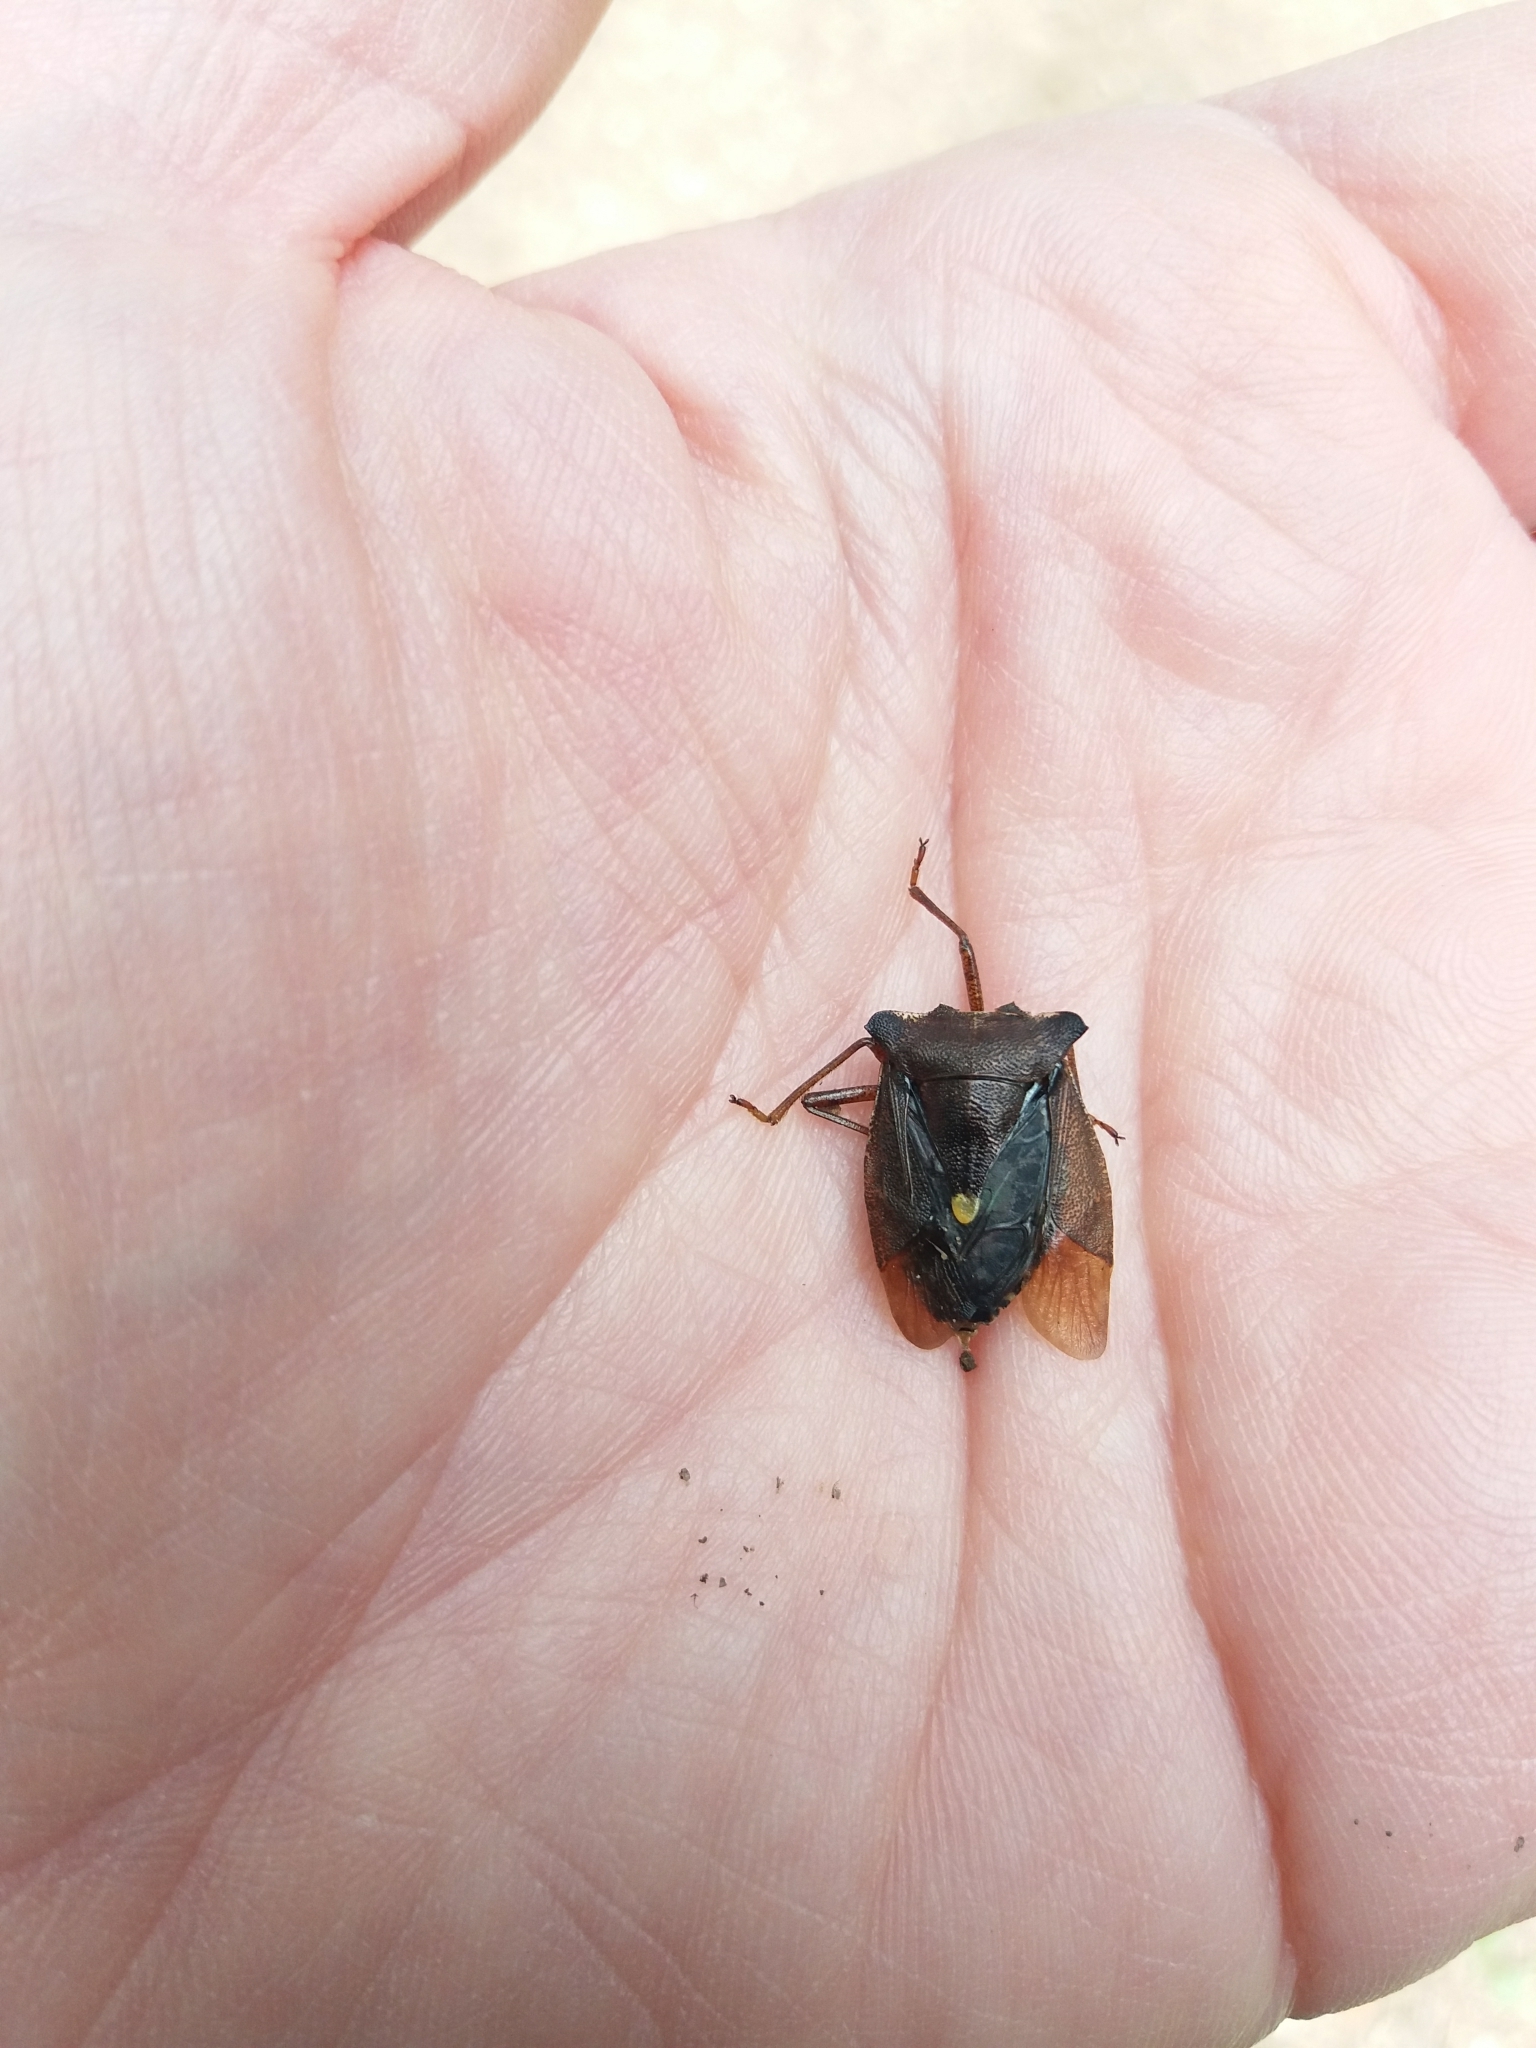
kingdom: Animalia
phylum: Arthropoda
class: Insecta
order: Hemiptera
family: Pentatomidae
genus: Pentatoma
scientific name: Pentatoma rufipes
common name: Forest bug
